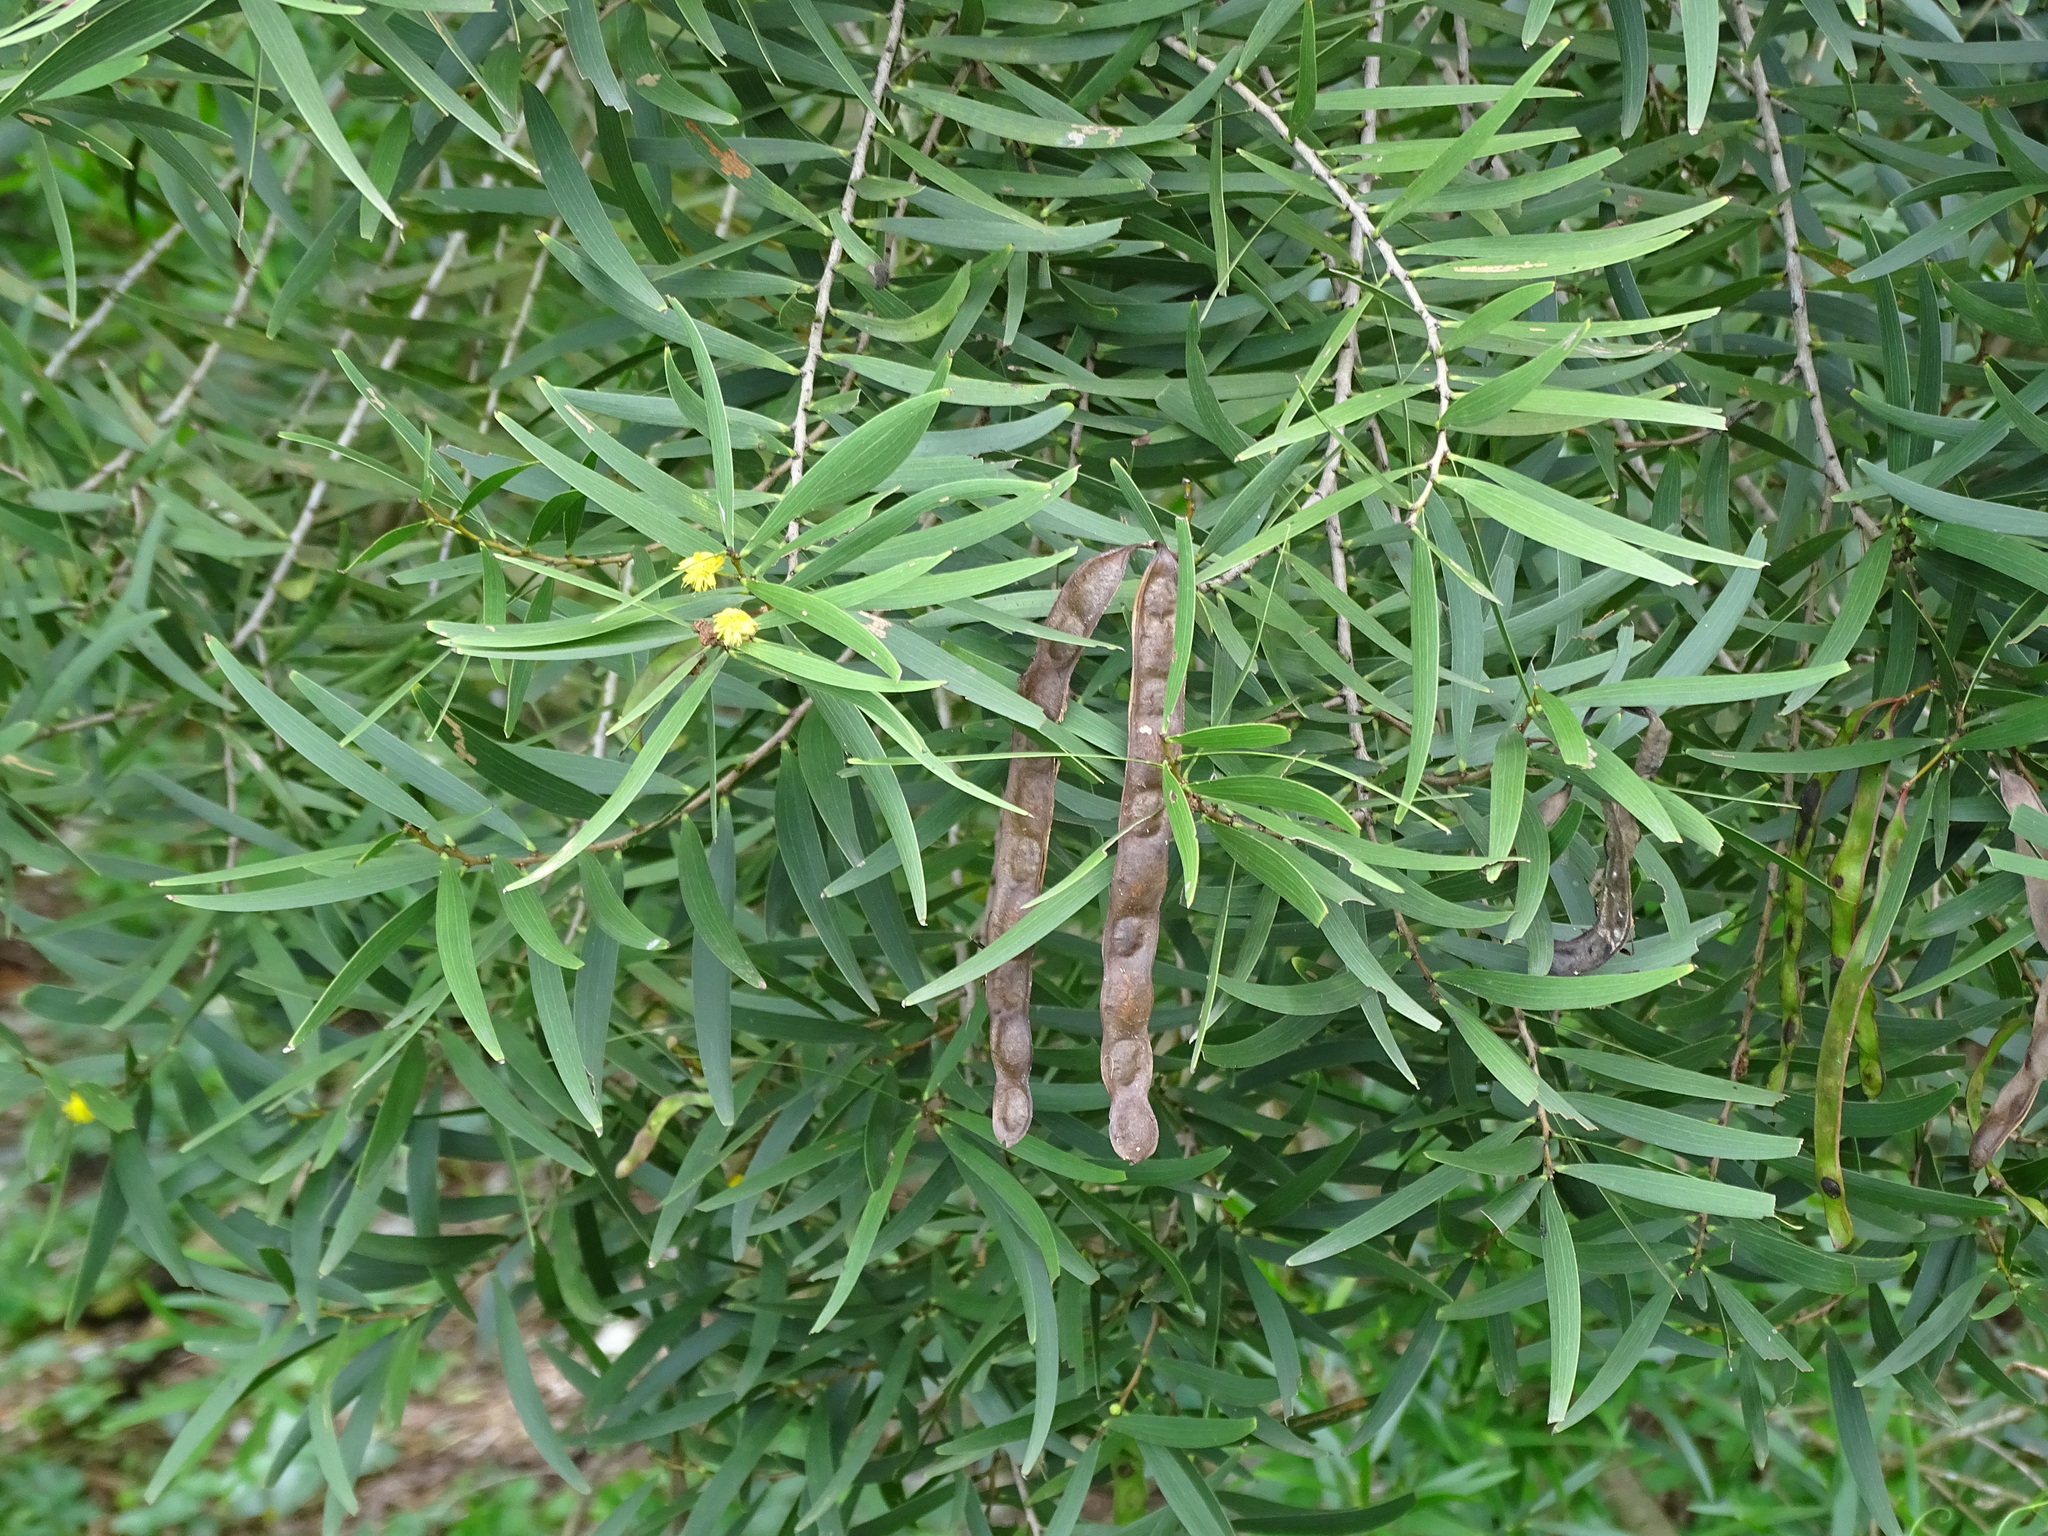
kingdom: Plantae
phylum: Tracheophyta
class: Magnoliopsida
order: Fabales
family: Fabaceae
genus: Acacia
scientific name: Acacia confusa
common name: Formosan koa
